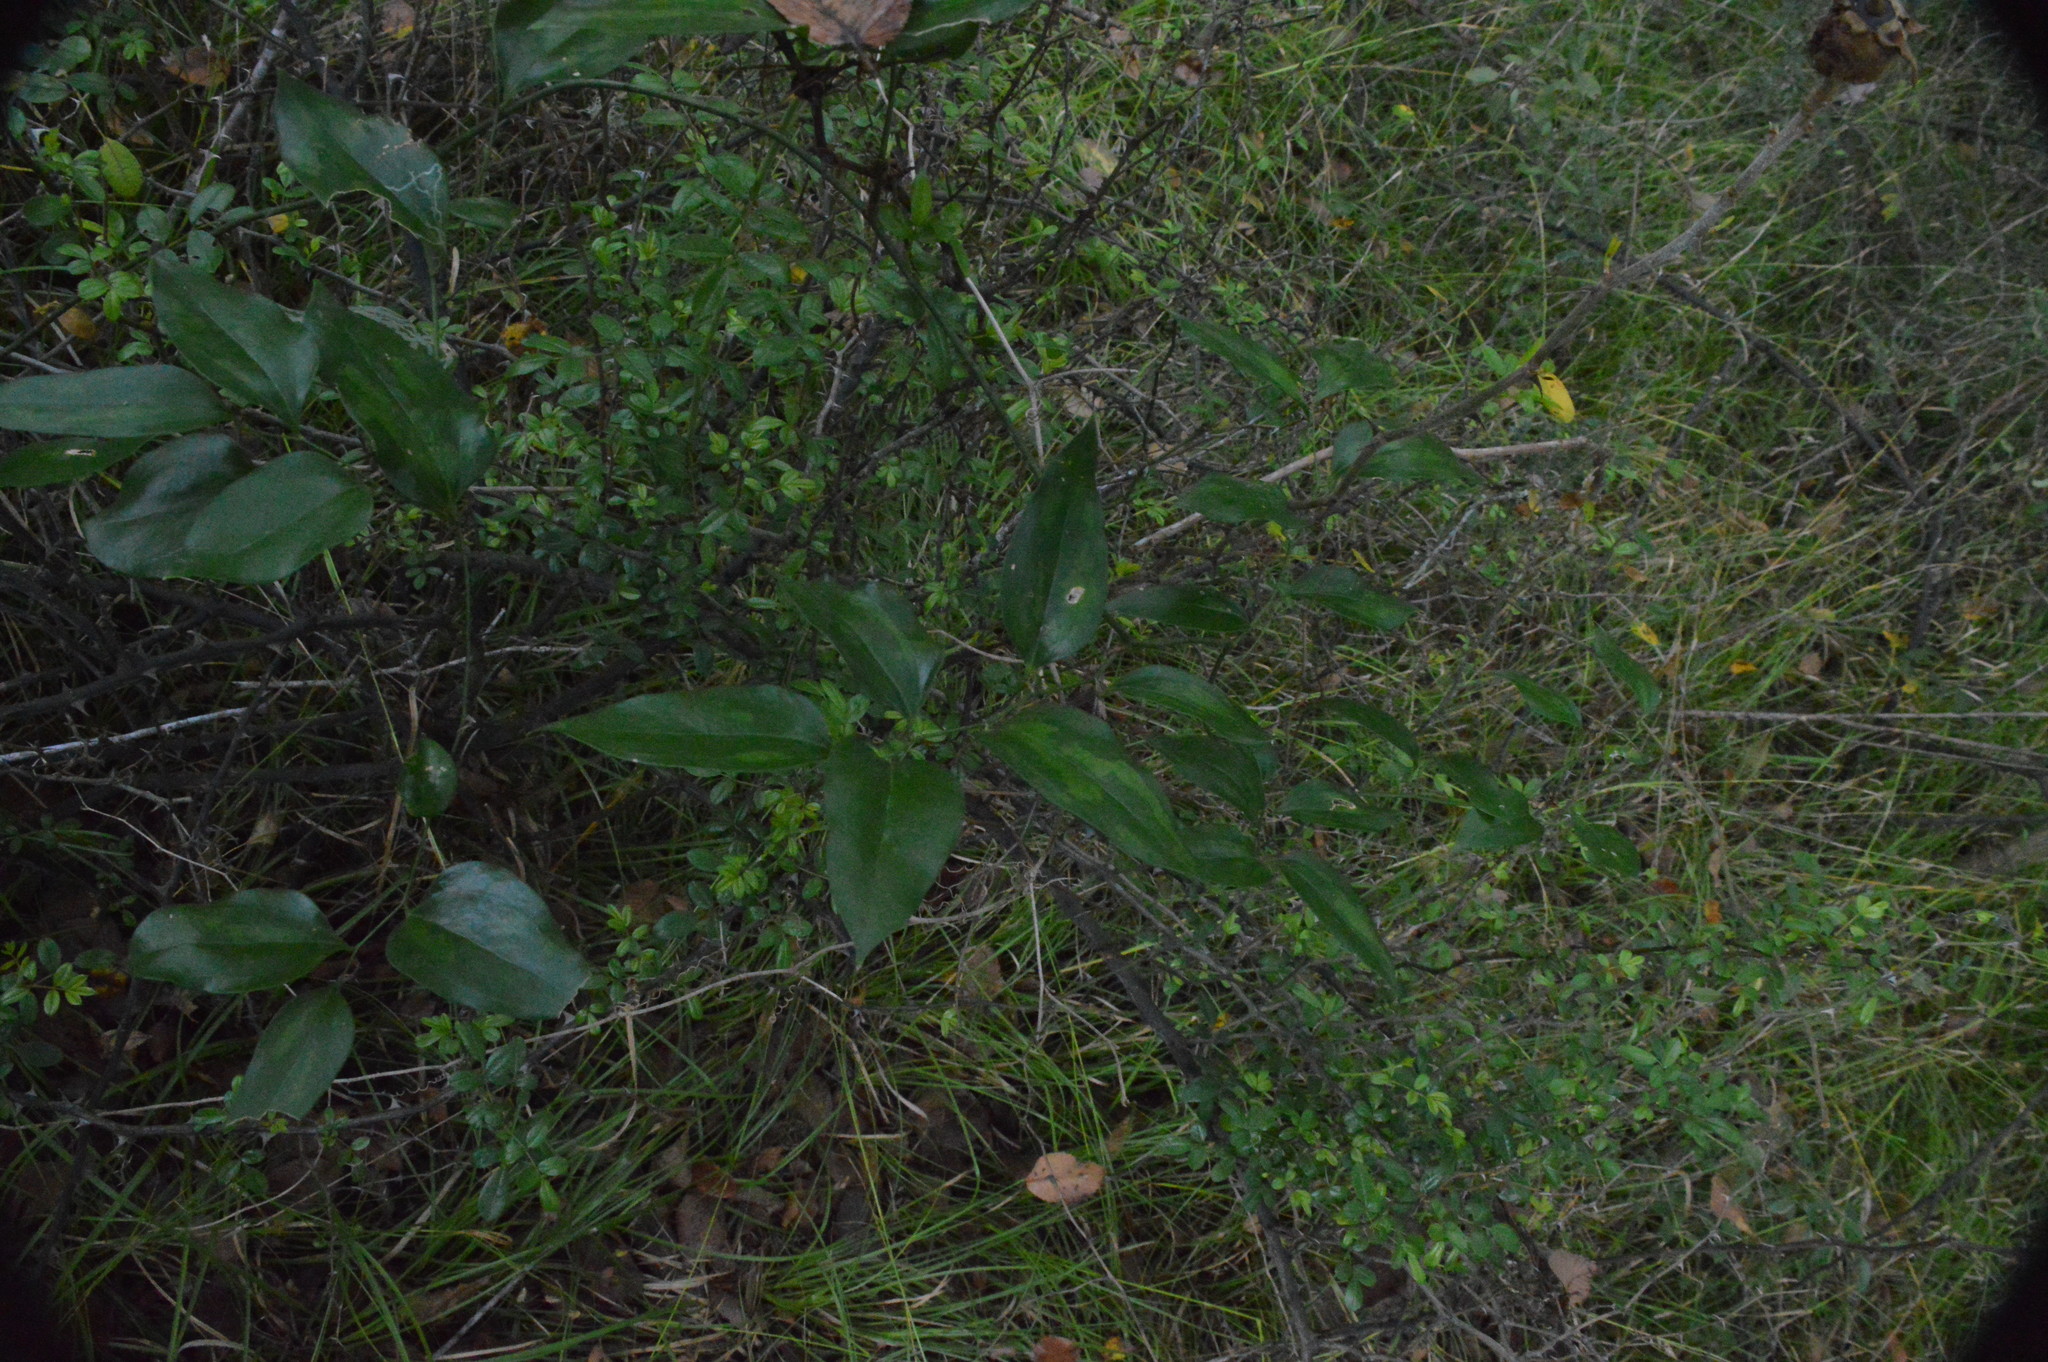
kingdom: Plantae
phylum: Tracheophyta
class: Liliopsida
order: Liliales
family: Smilacaceae
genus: Smilax
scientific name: Smilax maritima
